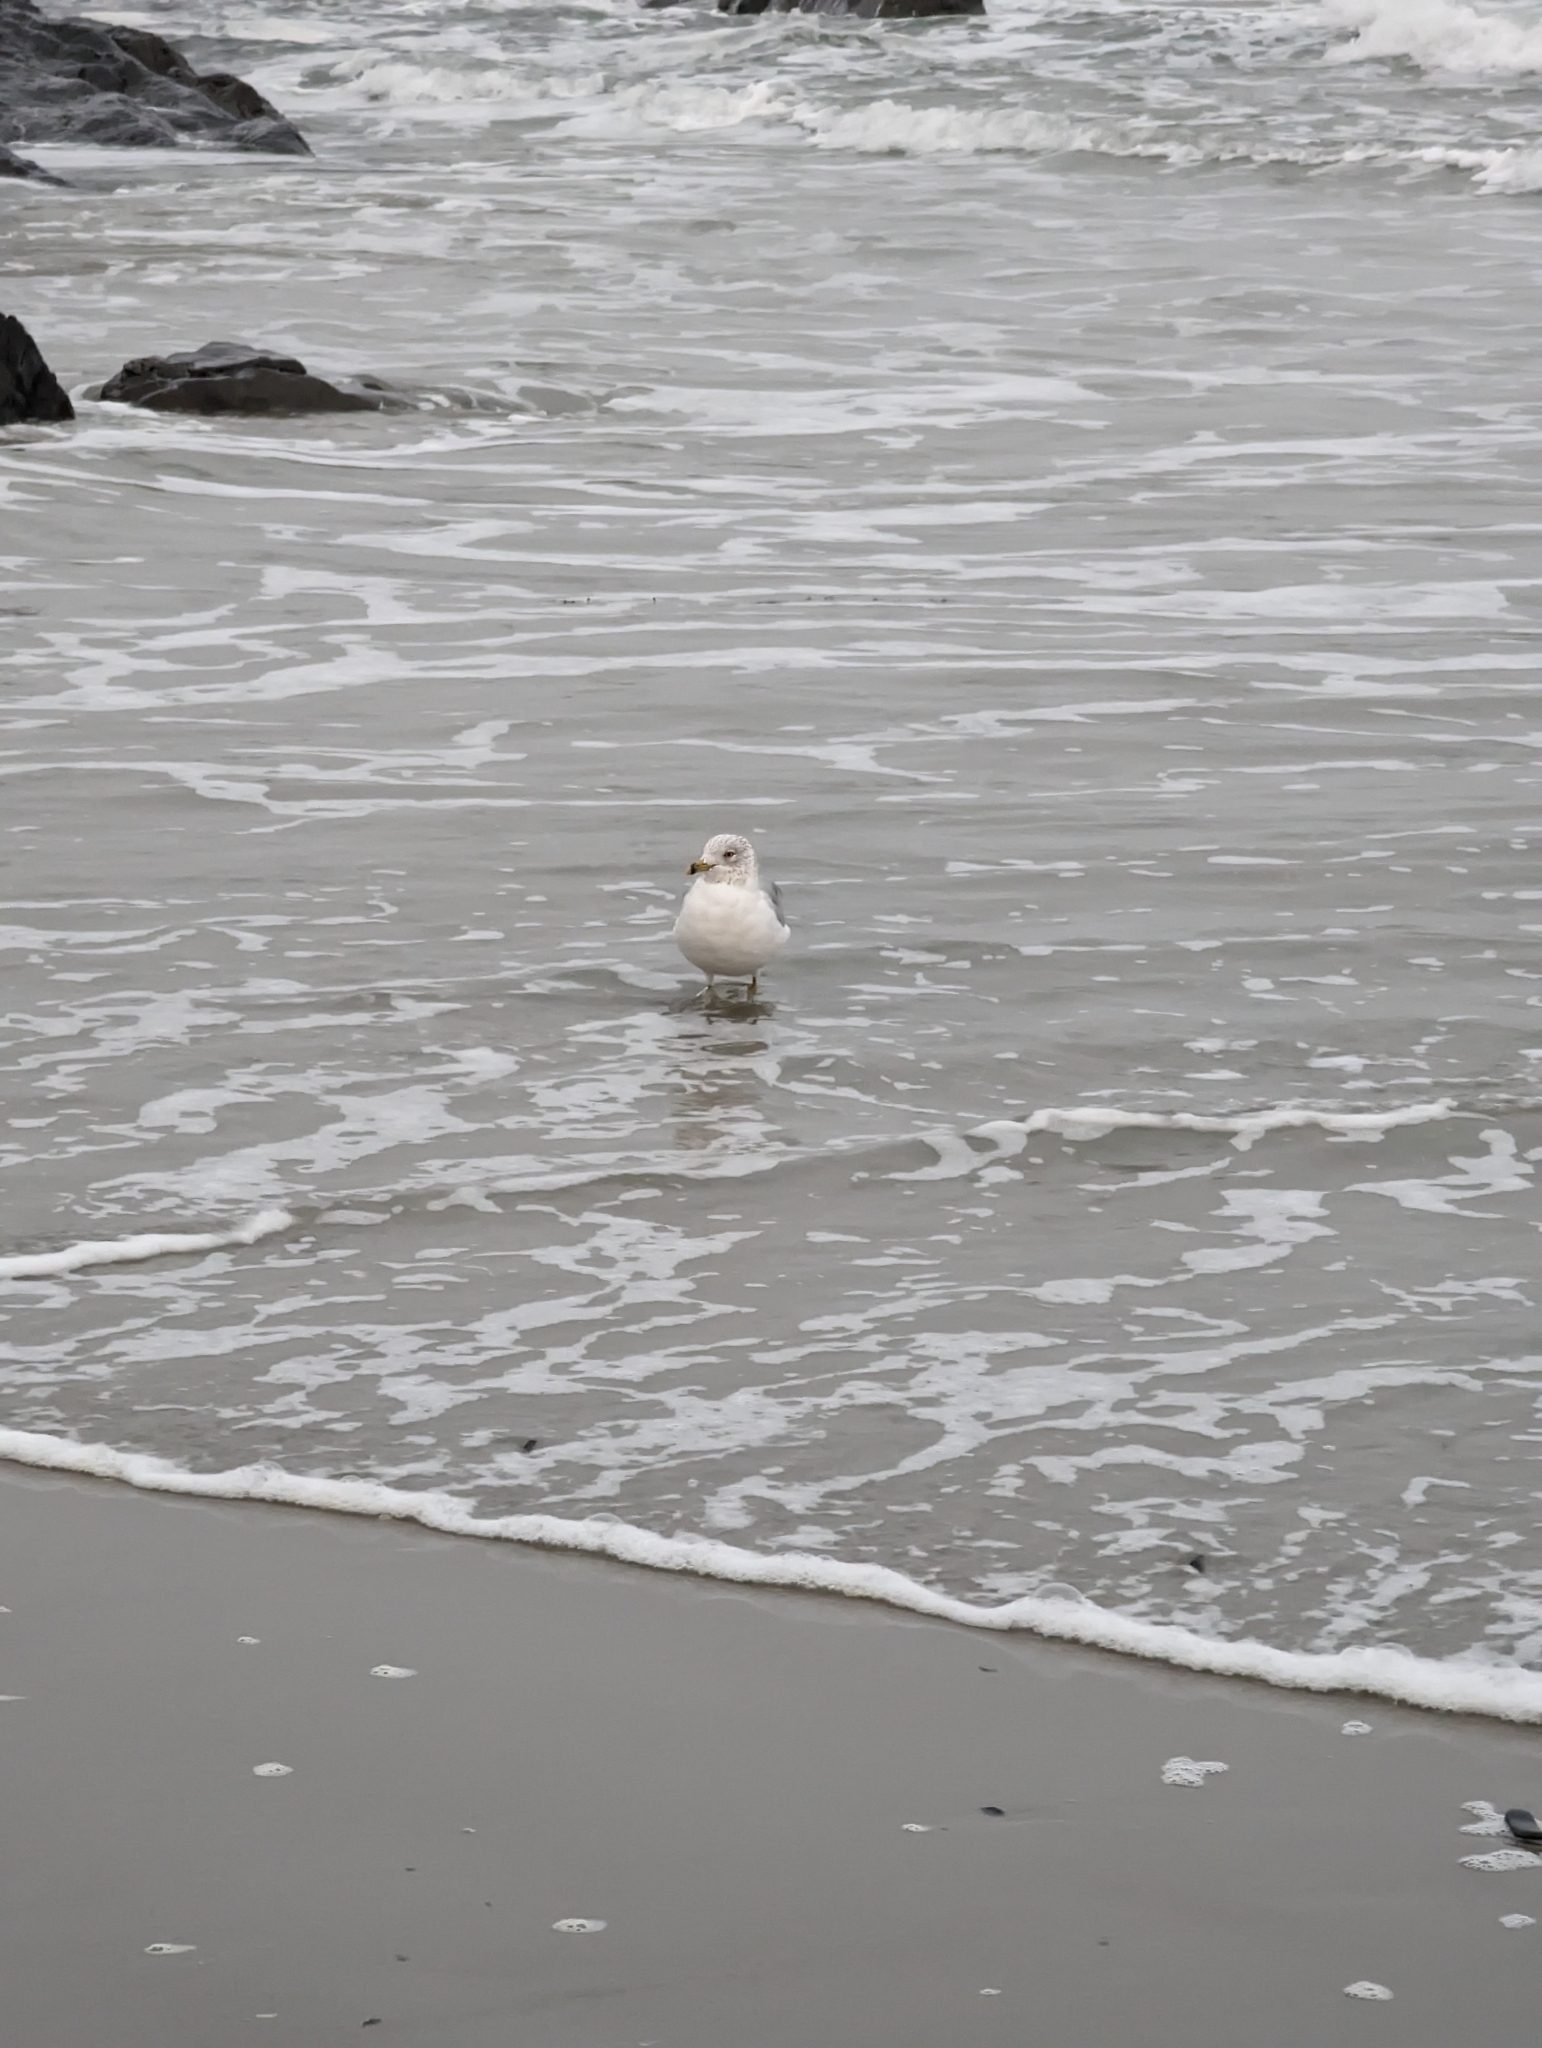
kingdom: Animalia
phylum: Chordata
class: Aves
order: Charadriiformes
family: Laridae
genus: Larus
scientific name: Larus delawarensis
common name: Ring-billed gull
